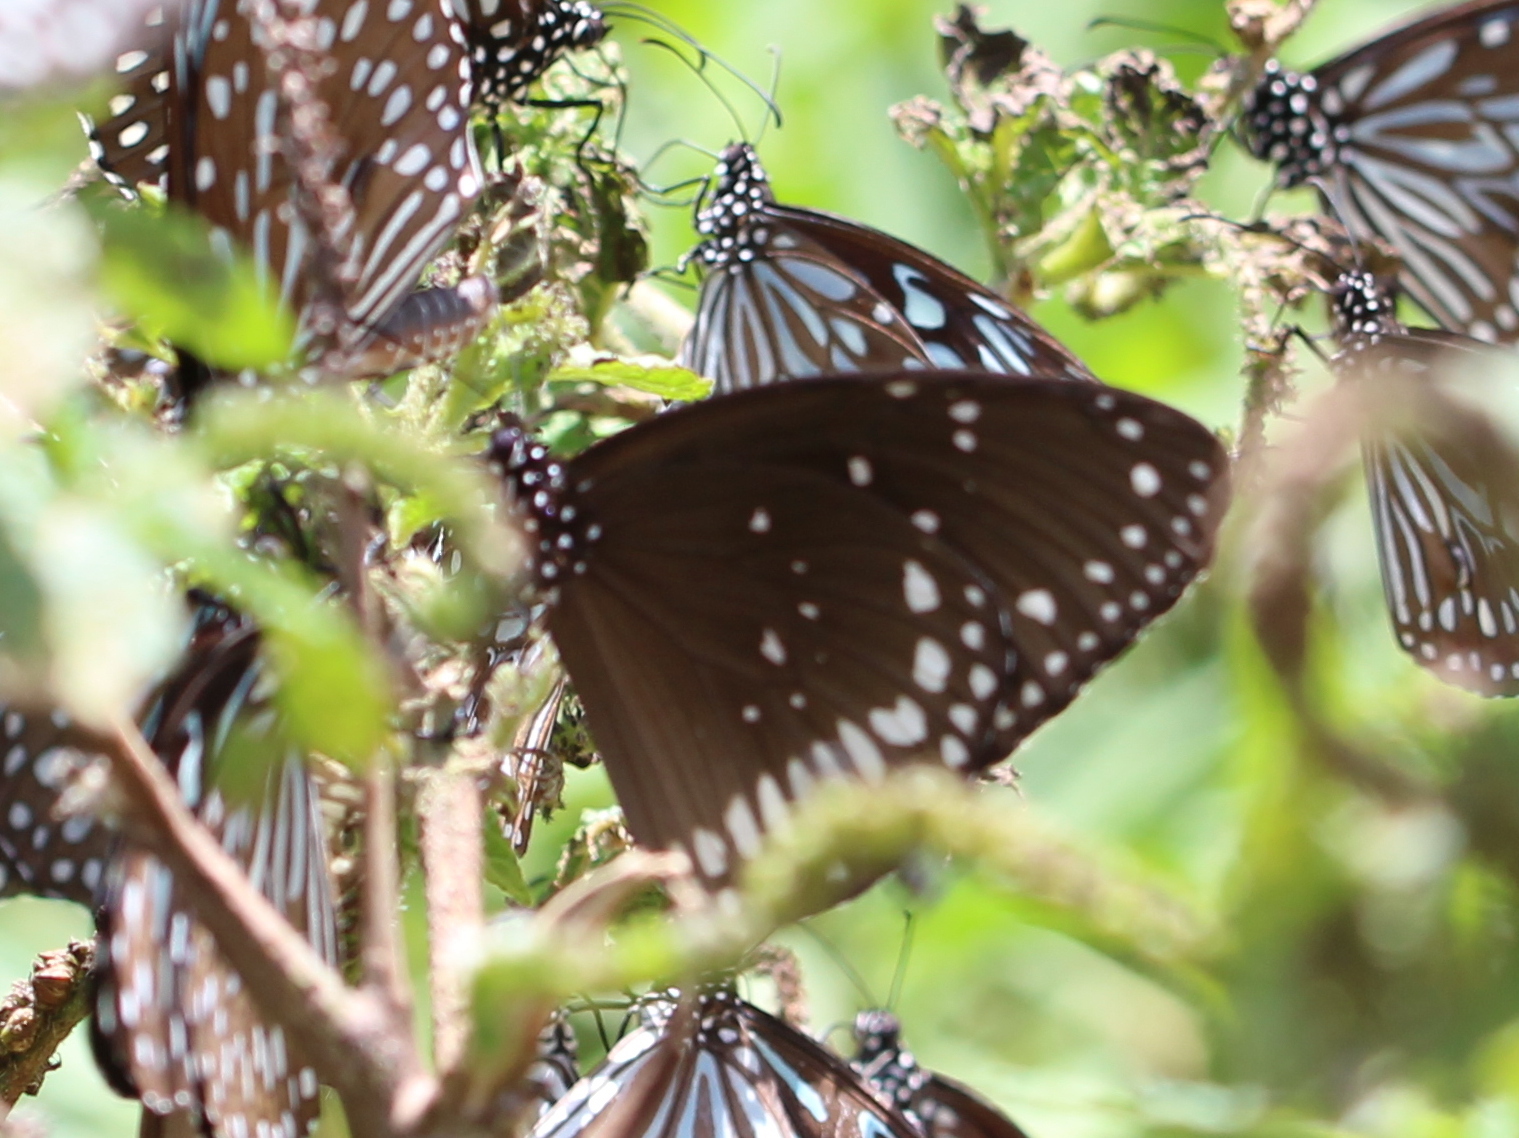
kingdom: Animalia
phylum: Arthropoda
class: Insecta
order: Lepidoptera
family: Nymphalidae
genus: Euploea
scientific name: Euploea sylvester
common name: Double-branded crow butterfly
